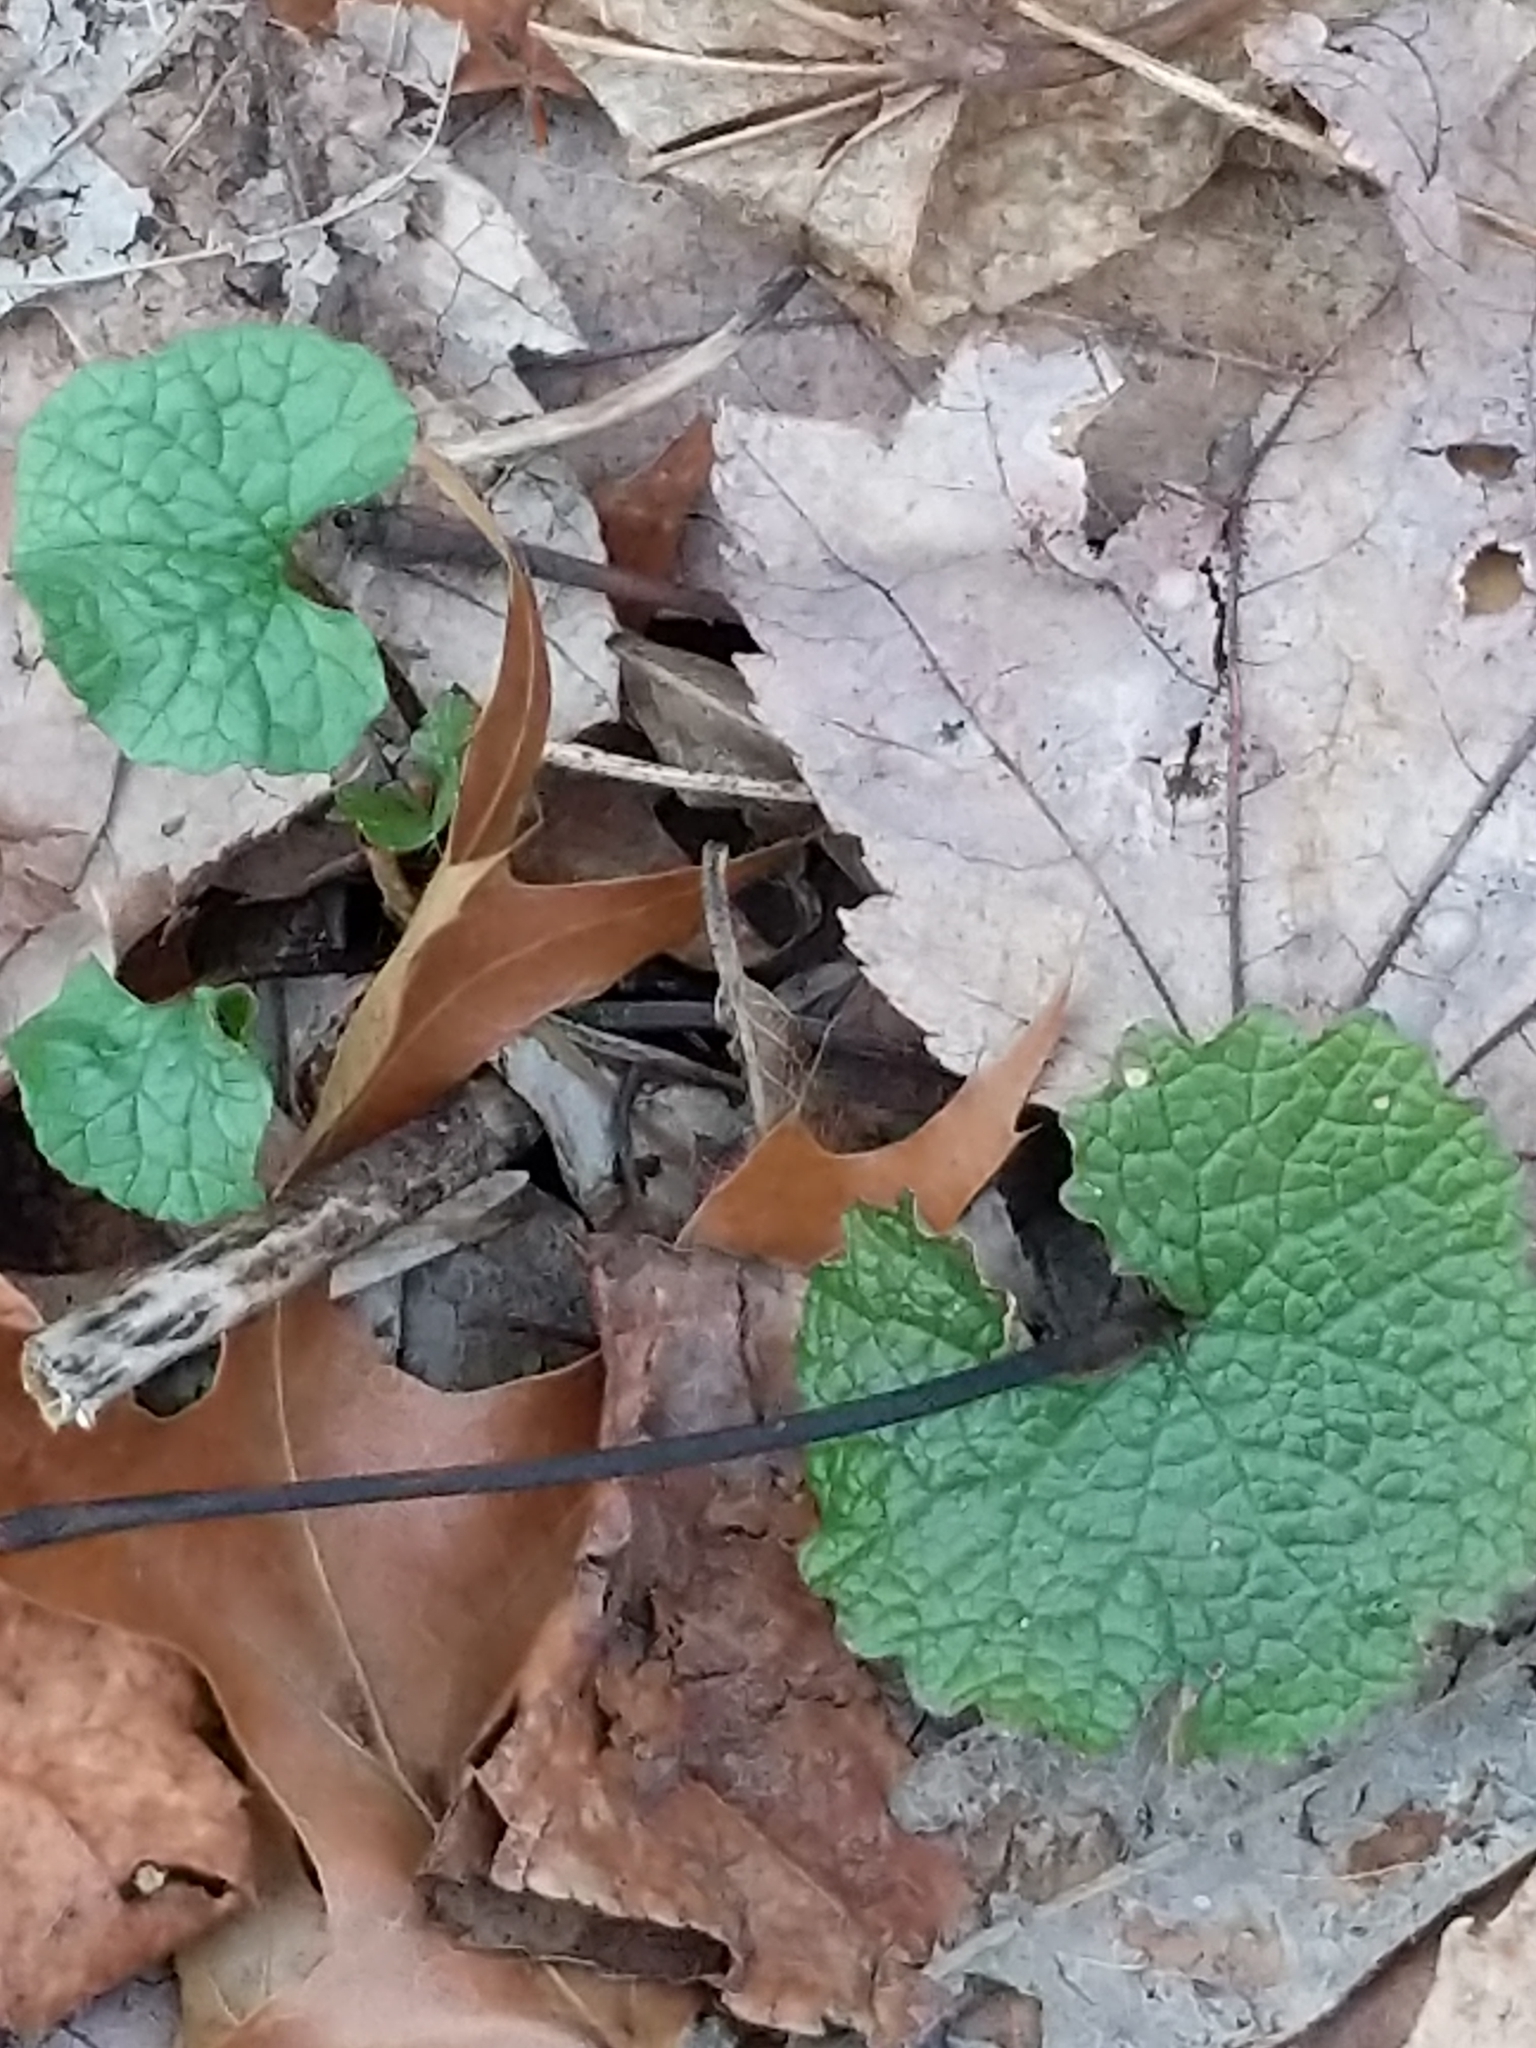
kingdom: Plantae
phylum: Tracheophyta
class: Magnoliopsida
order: Brassicales
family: Brassicaceae
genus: Alliaria
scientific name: Alliaria petiolata
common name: Garlic mustard
